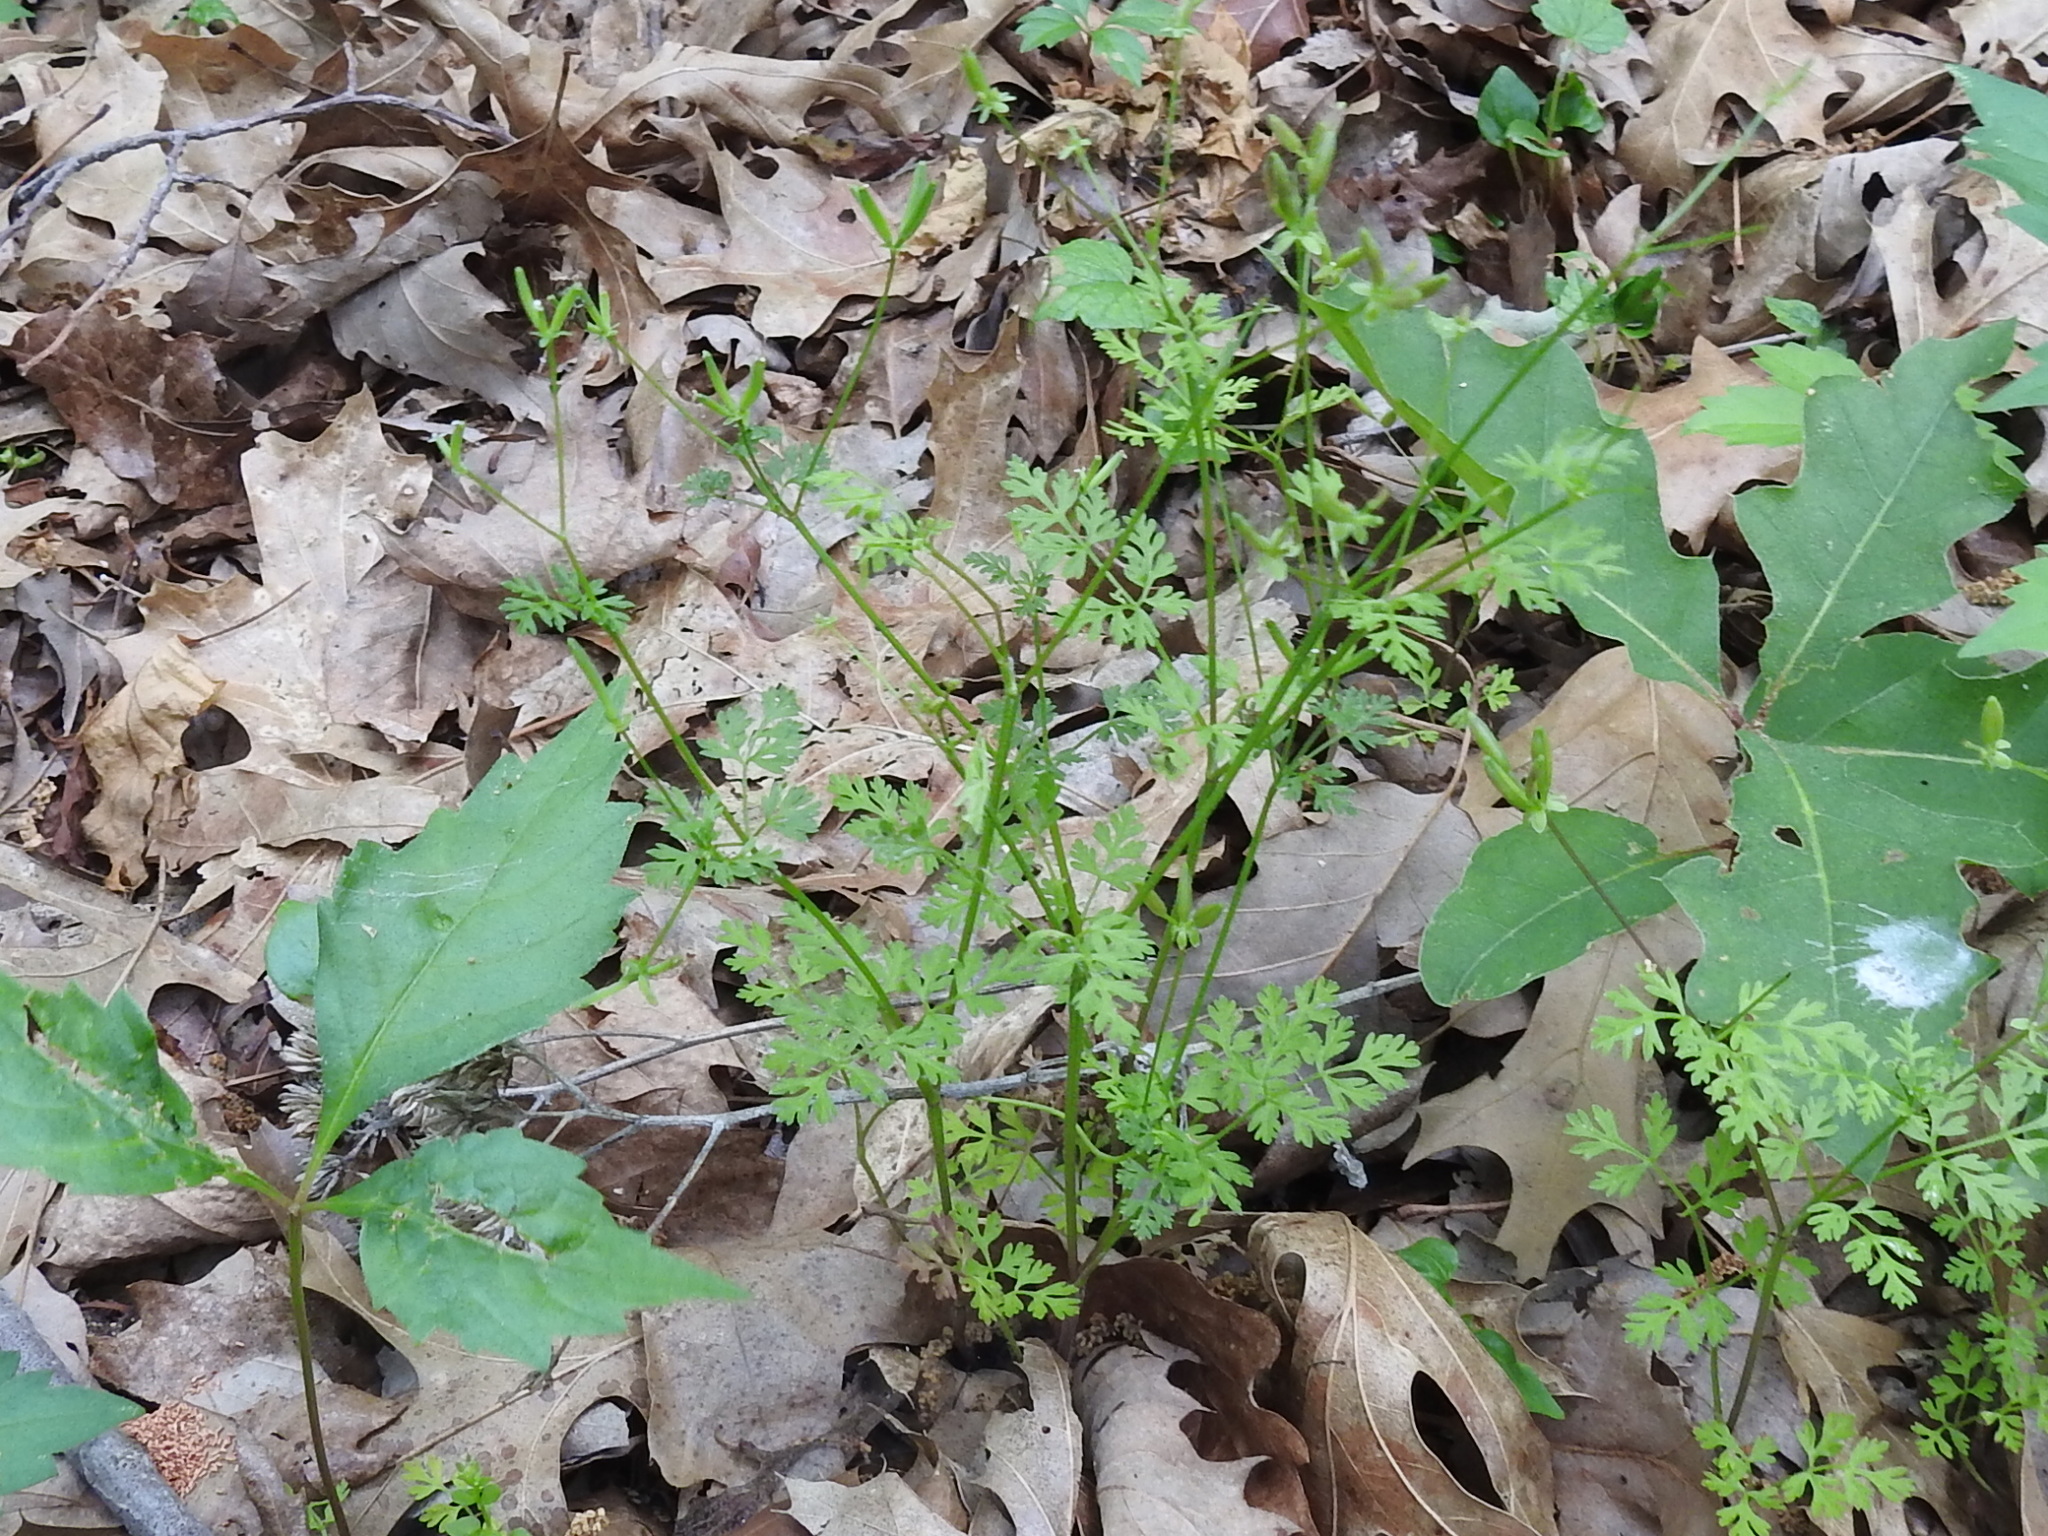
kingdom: Plantae
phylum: Tracheophyta
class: Magnoliopsida
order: Apiales
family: Apiaceae
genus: Chaerophyllum
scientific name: Chaerophyllum tainturieri
